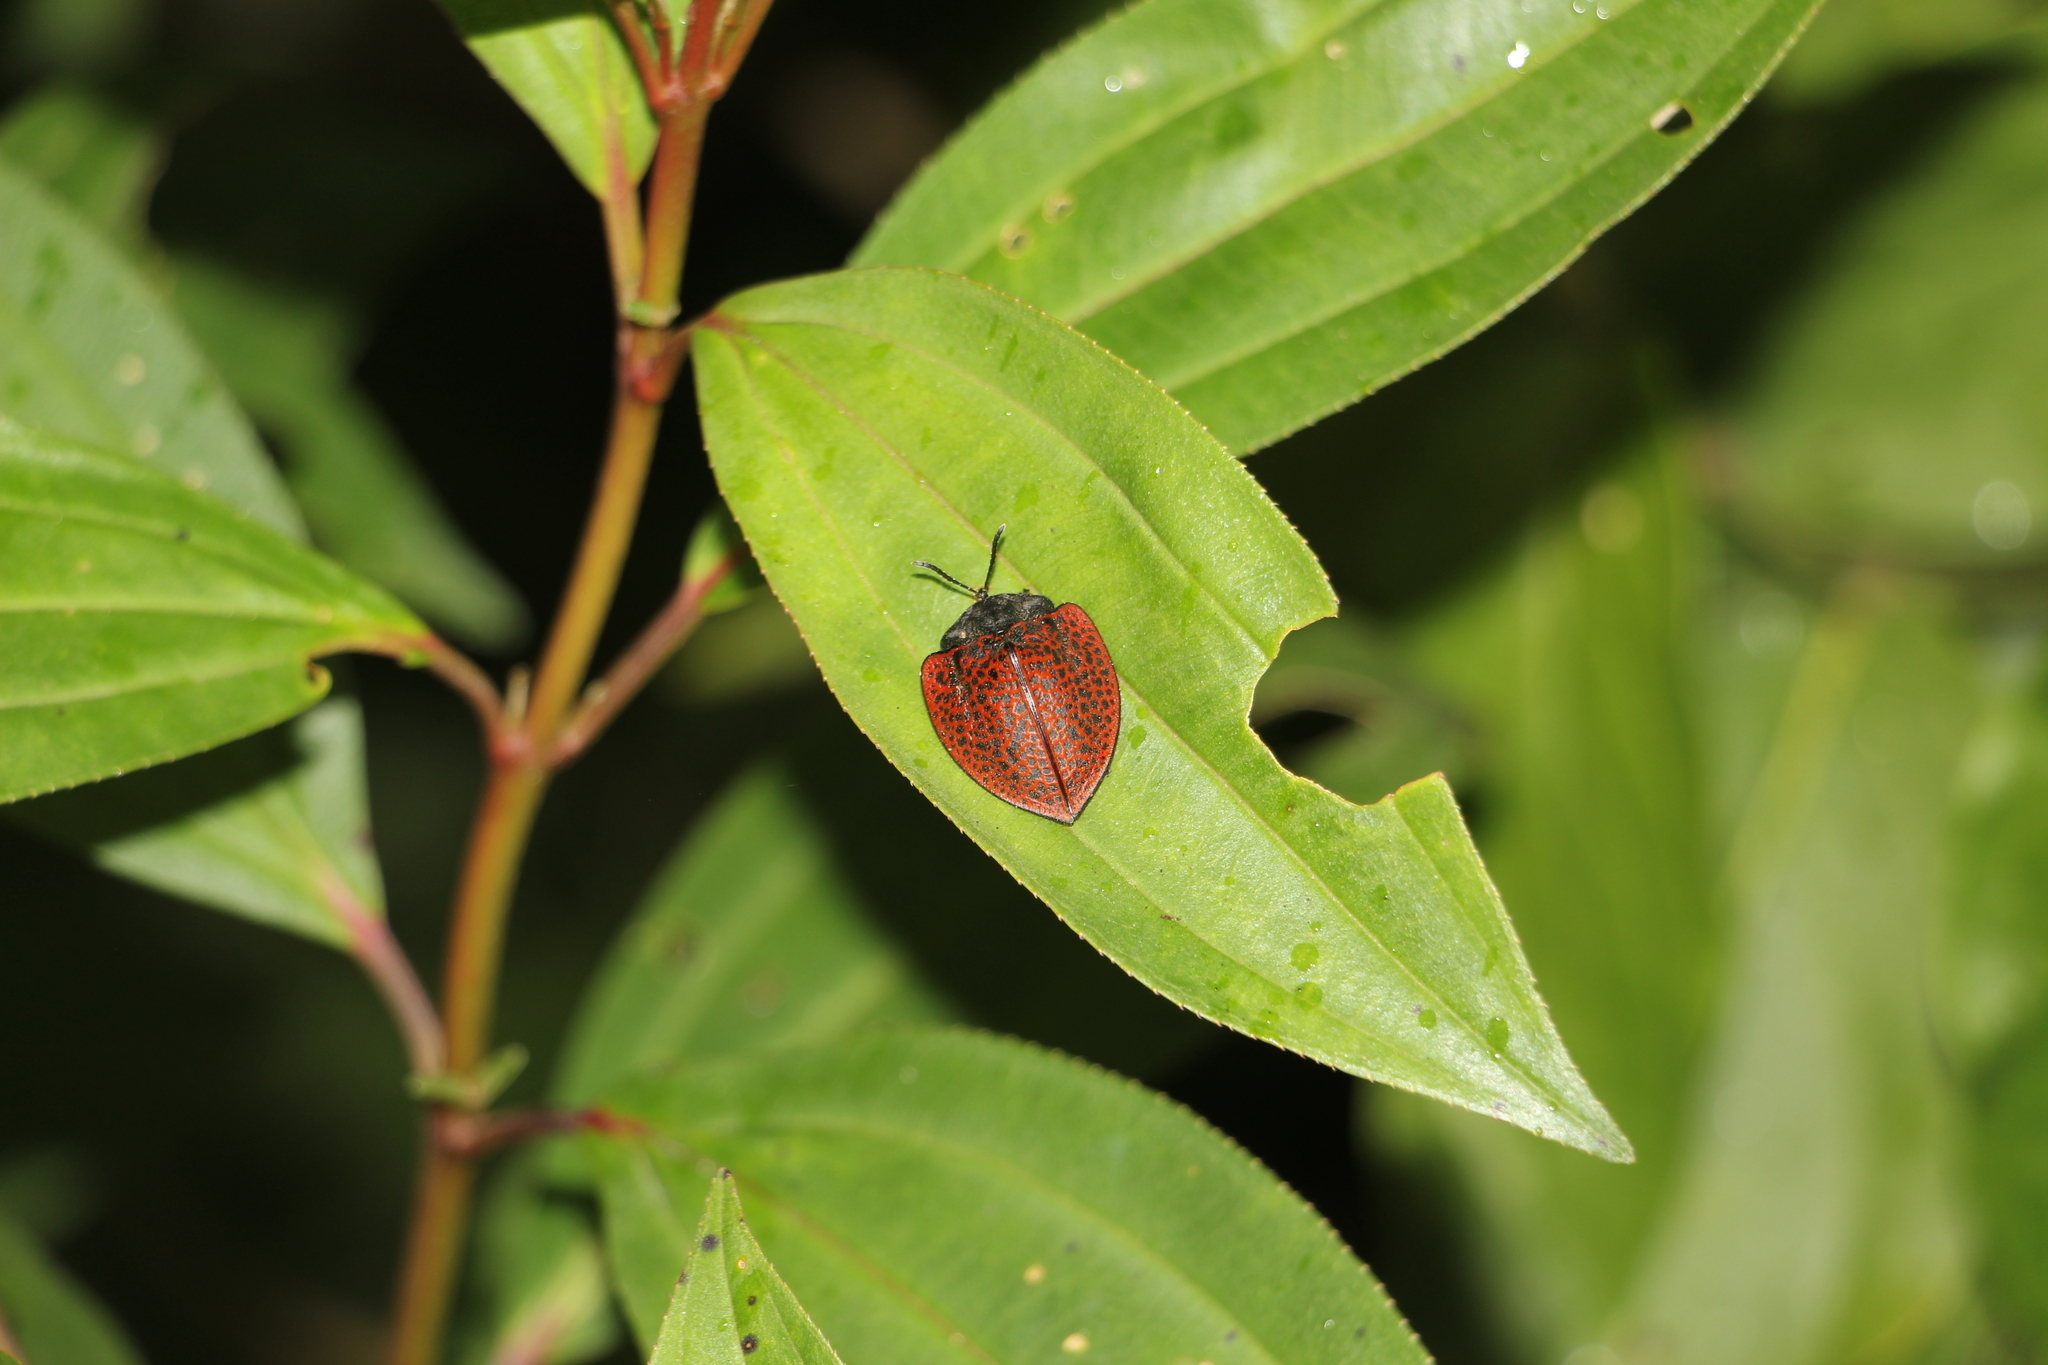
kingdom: Animalia
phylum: Arthropoda
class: Insecta
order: Coleoptera
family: Chrysomelidae
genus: Cyrtonota
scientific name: Cyrtonota textilis
